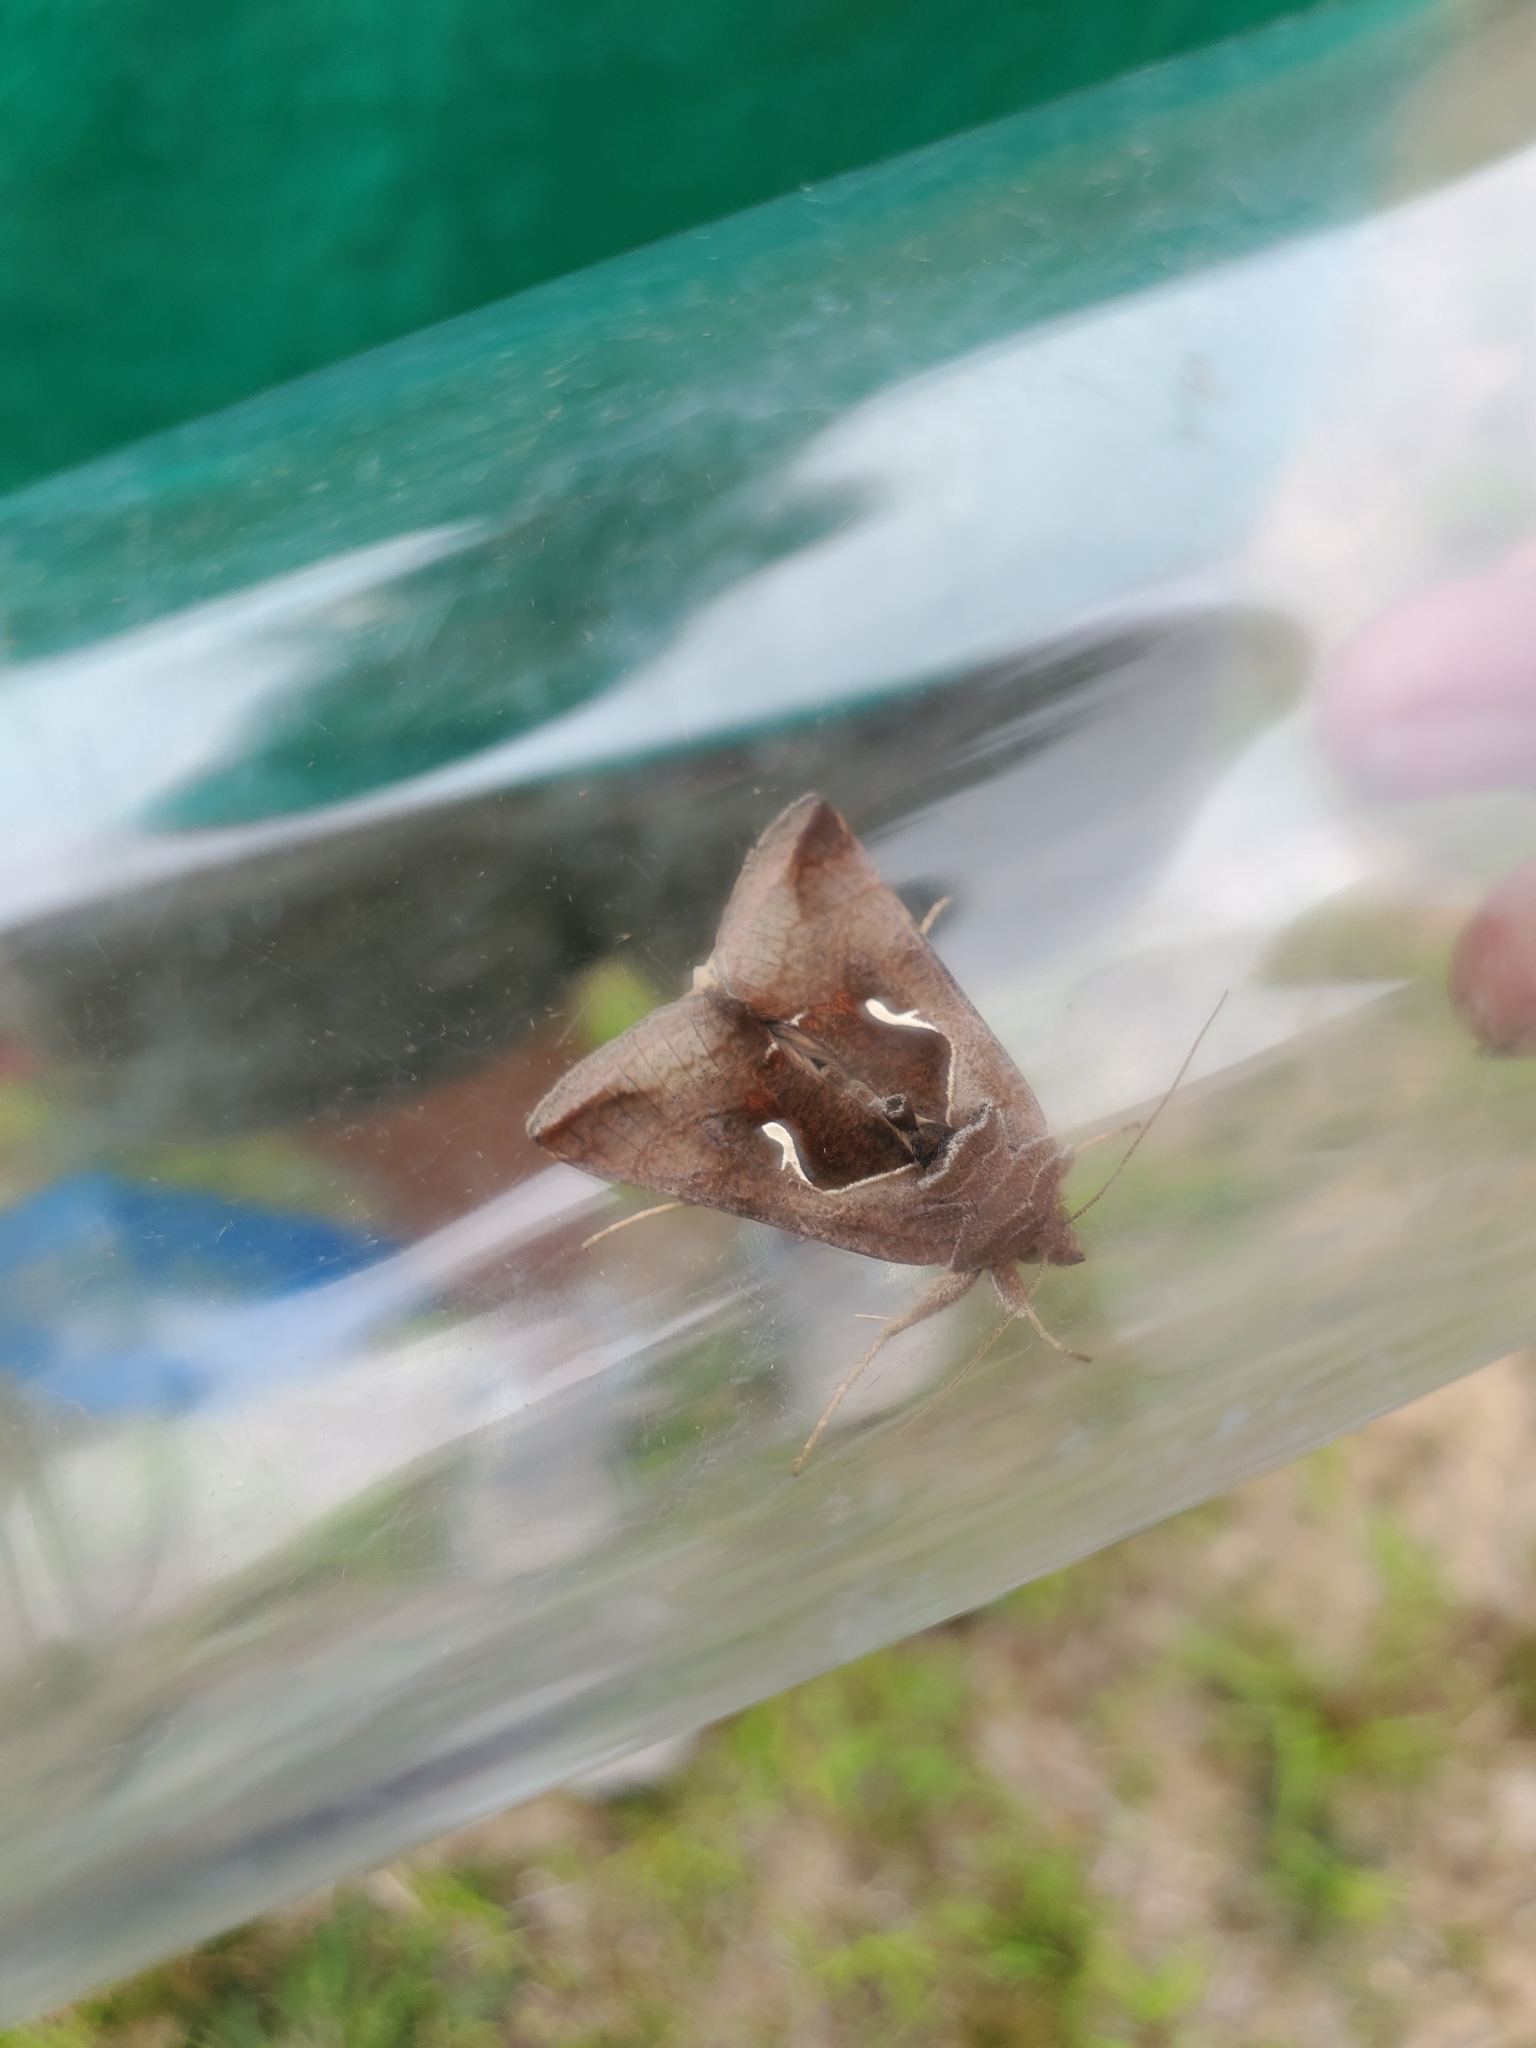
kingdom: Animalia
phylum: Arthropoda
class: Insecta
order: Lepidoptera
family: Noctuidae
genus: Anagrapha
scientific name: Anagrapha falcifera
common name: Celery looper
